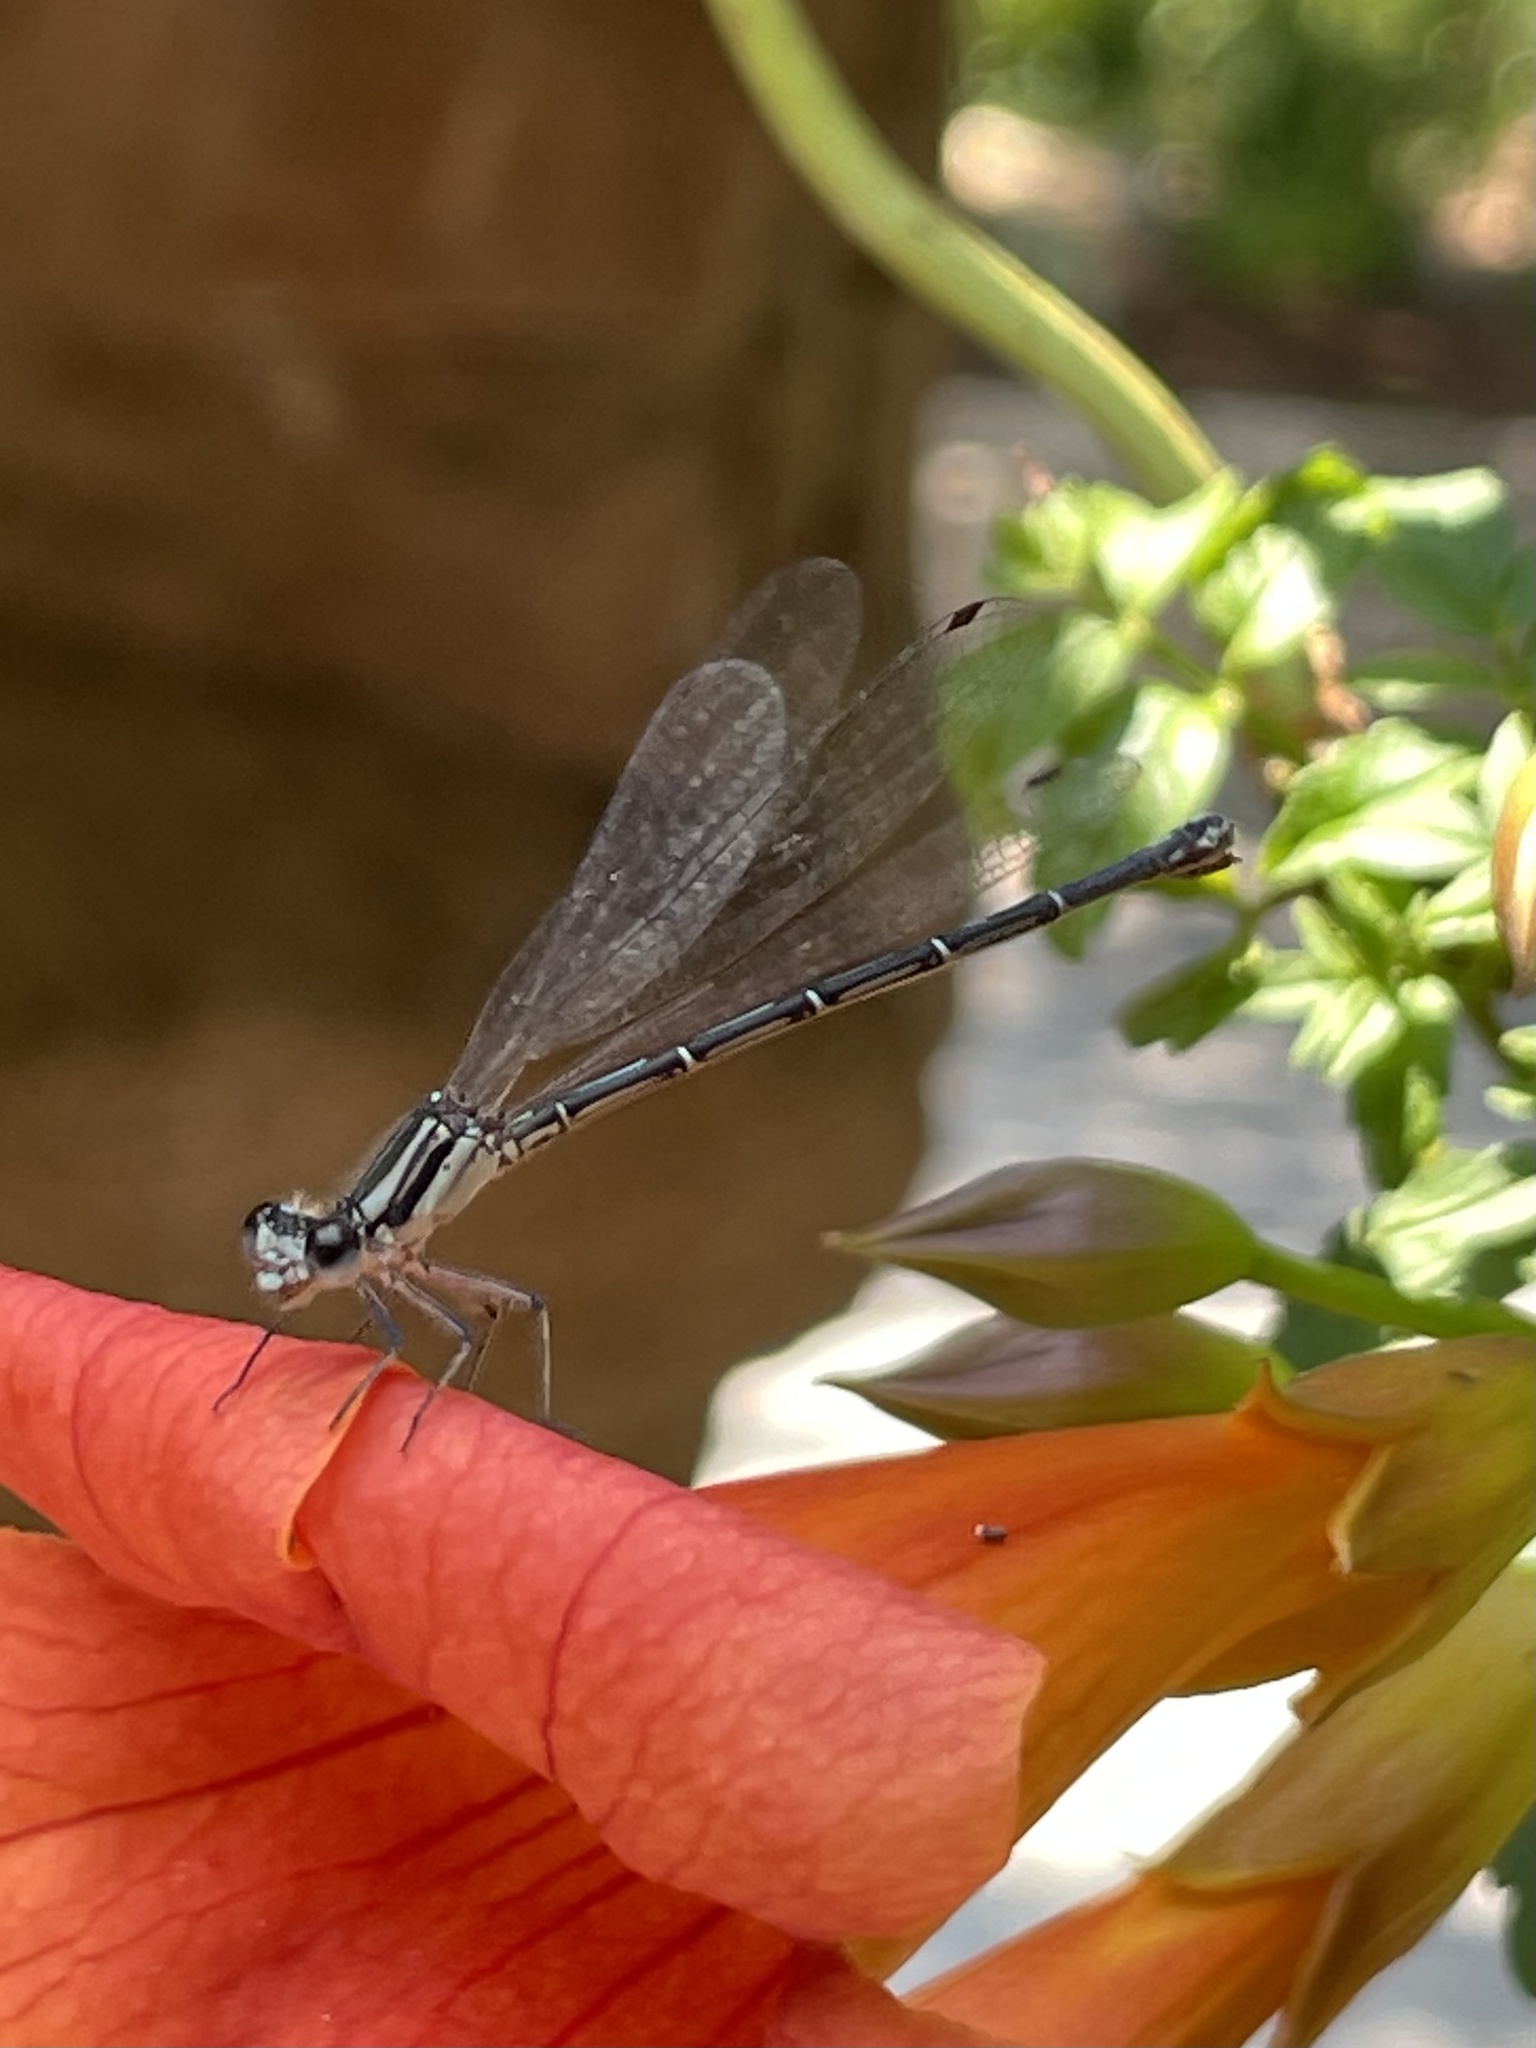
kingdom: Animalia
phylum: Arthropoda
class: Insecta
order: Odonata
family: Coenagrionidae
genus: Argia
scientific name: Argia translata
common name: Dusky dancer
